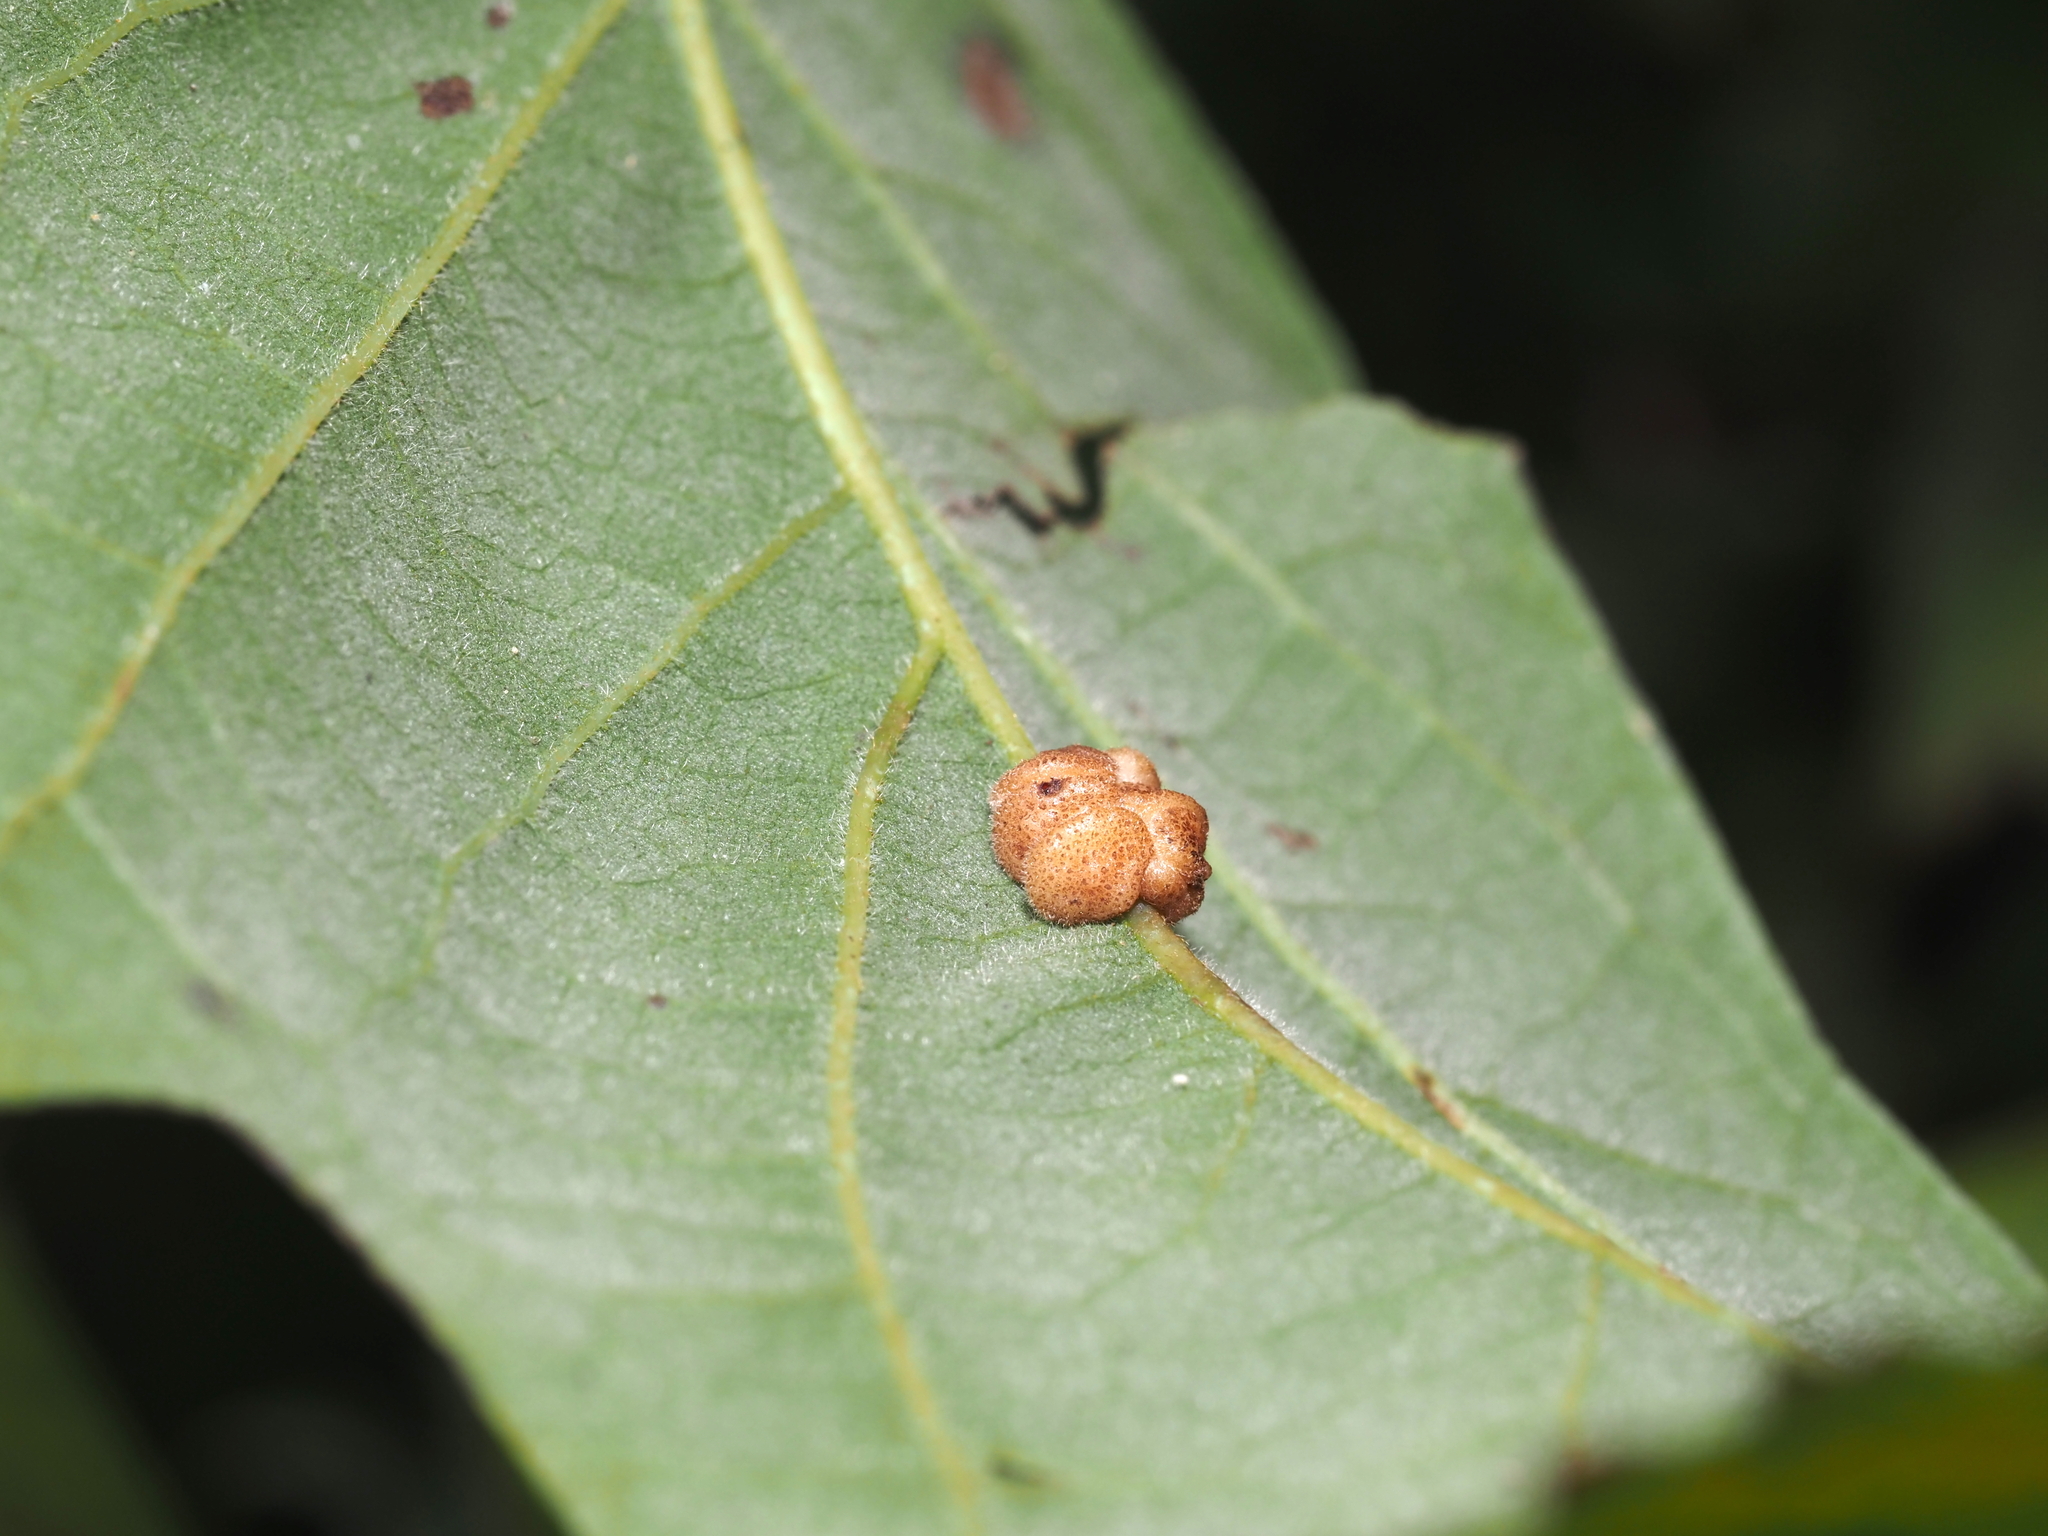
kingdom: Animalia
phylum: Arthropoda
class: Insecta
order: Hymenoptera
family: Cynipidae
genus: Andricus
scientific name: Andricus
